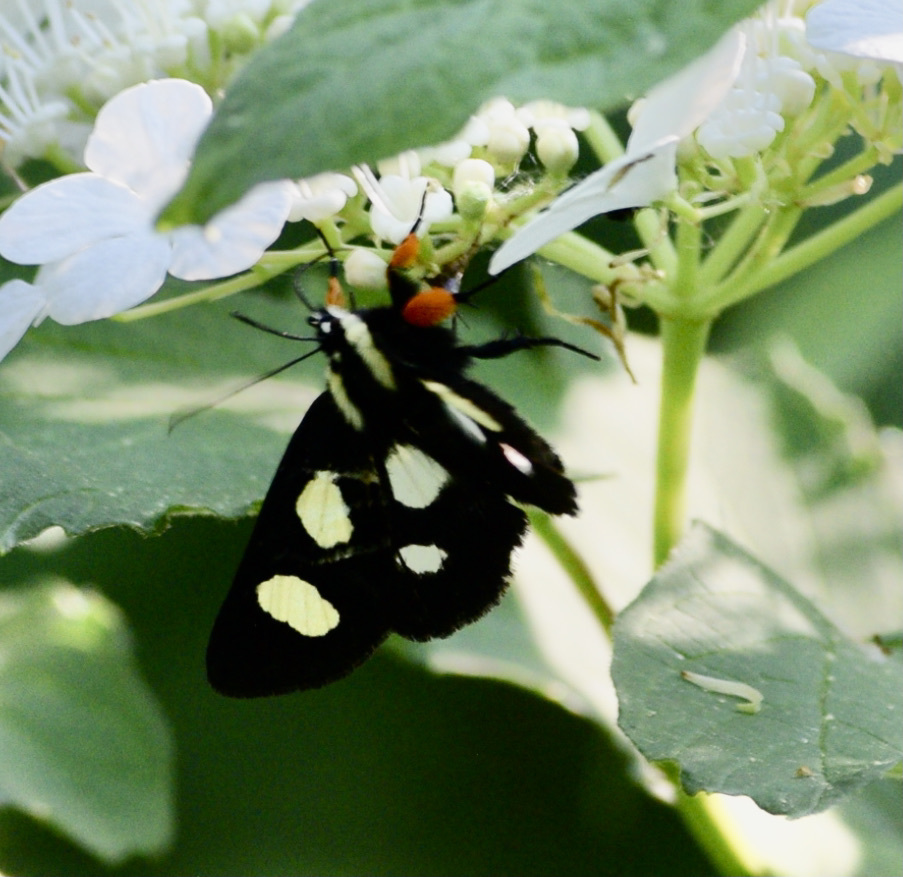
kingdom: Animalia
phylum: Arthropoda
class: Insecta
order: Lepidoptera
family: Noctuidae
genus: Alypia
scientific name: Alypia octomaculata
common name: Eight-spotted forester
